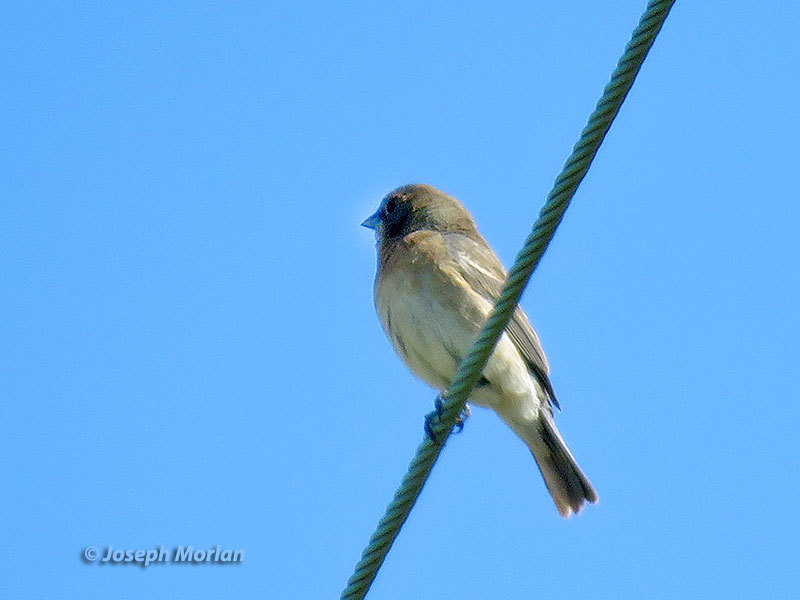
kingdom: Animalia
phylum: Chordata
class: Aves
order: Passeriformes
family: Cardinalidae
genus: Passerina
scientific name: Passerina amoena
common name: Lazuli bunting
